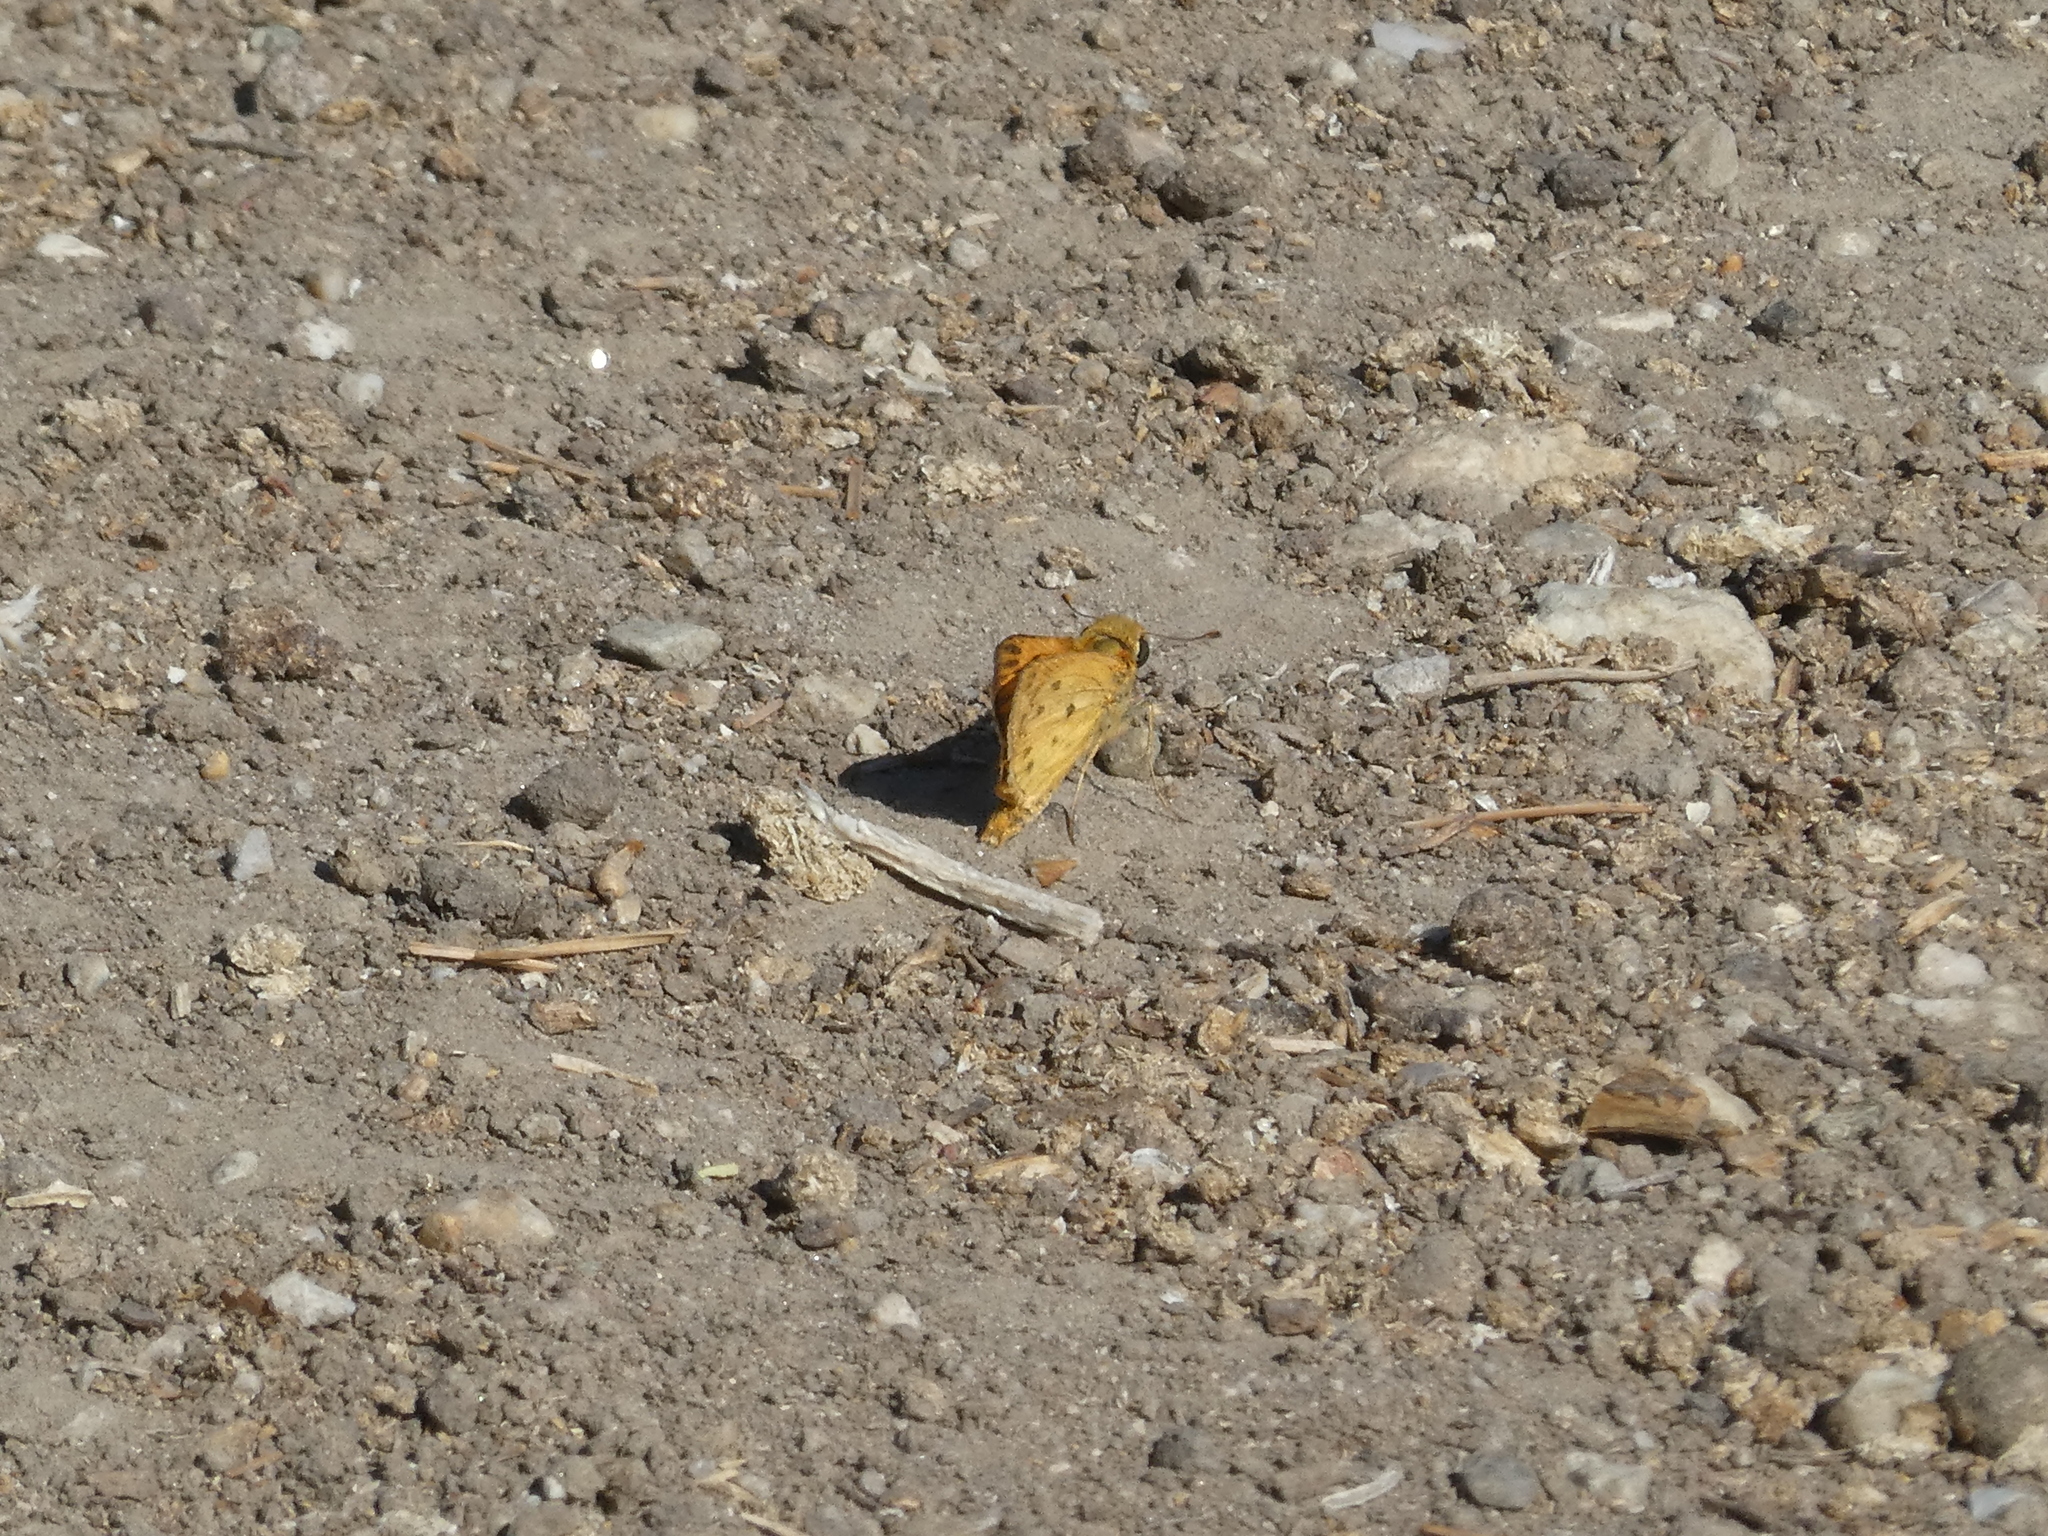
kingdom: Animalia
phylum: Arthropoda
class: Insecta
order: Lepidoptera
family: Hesperiidae
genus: Hylephila
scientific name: Hylephila phyleus
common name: Fiery skipper
